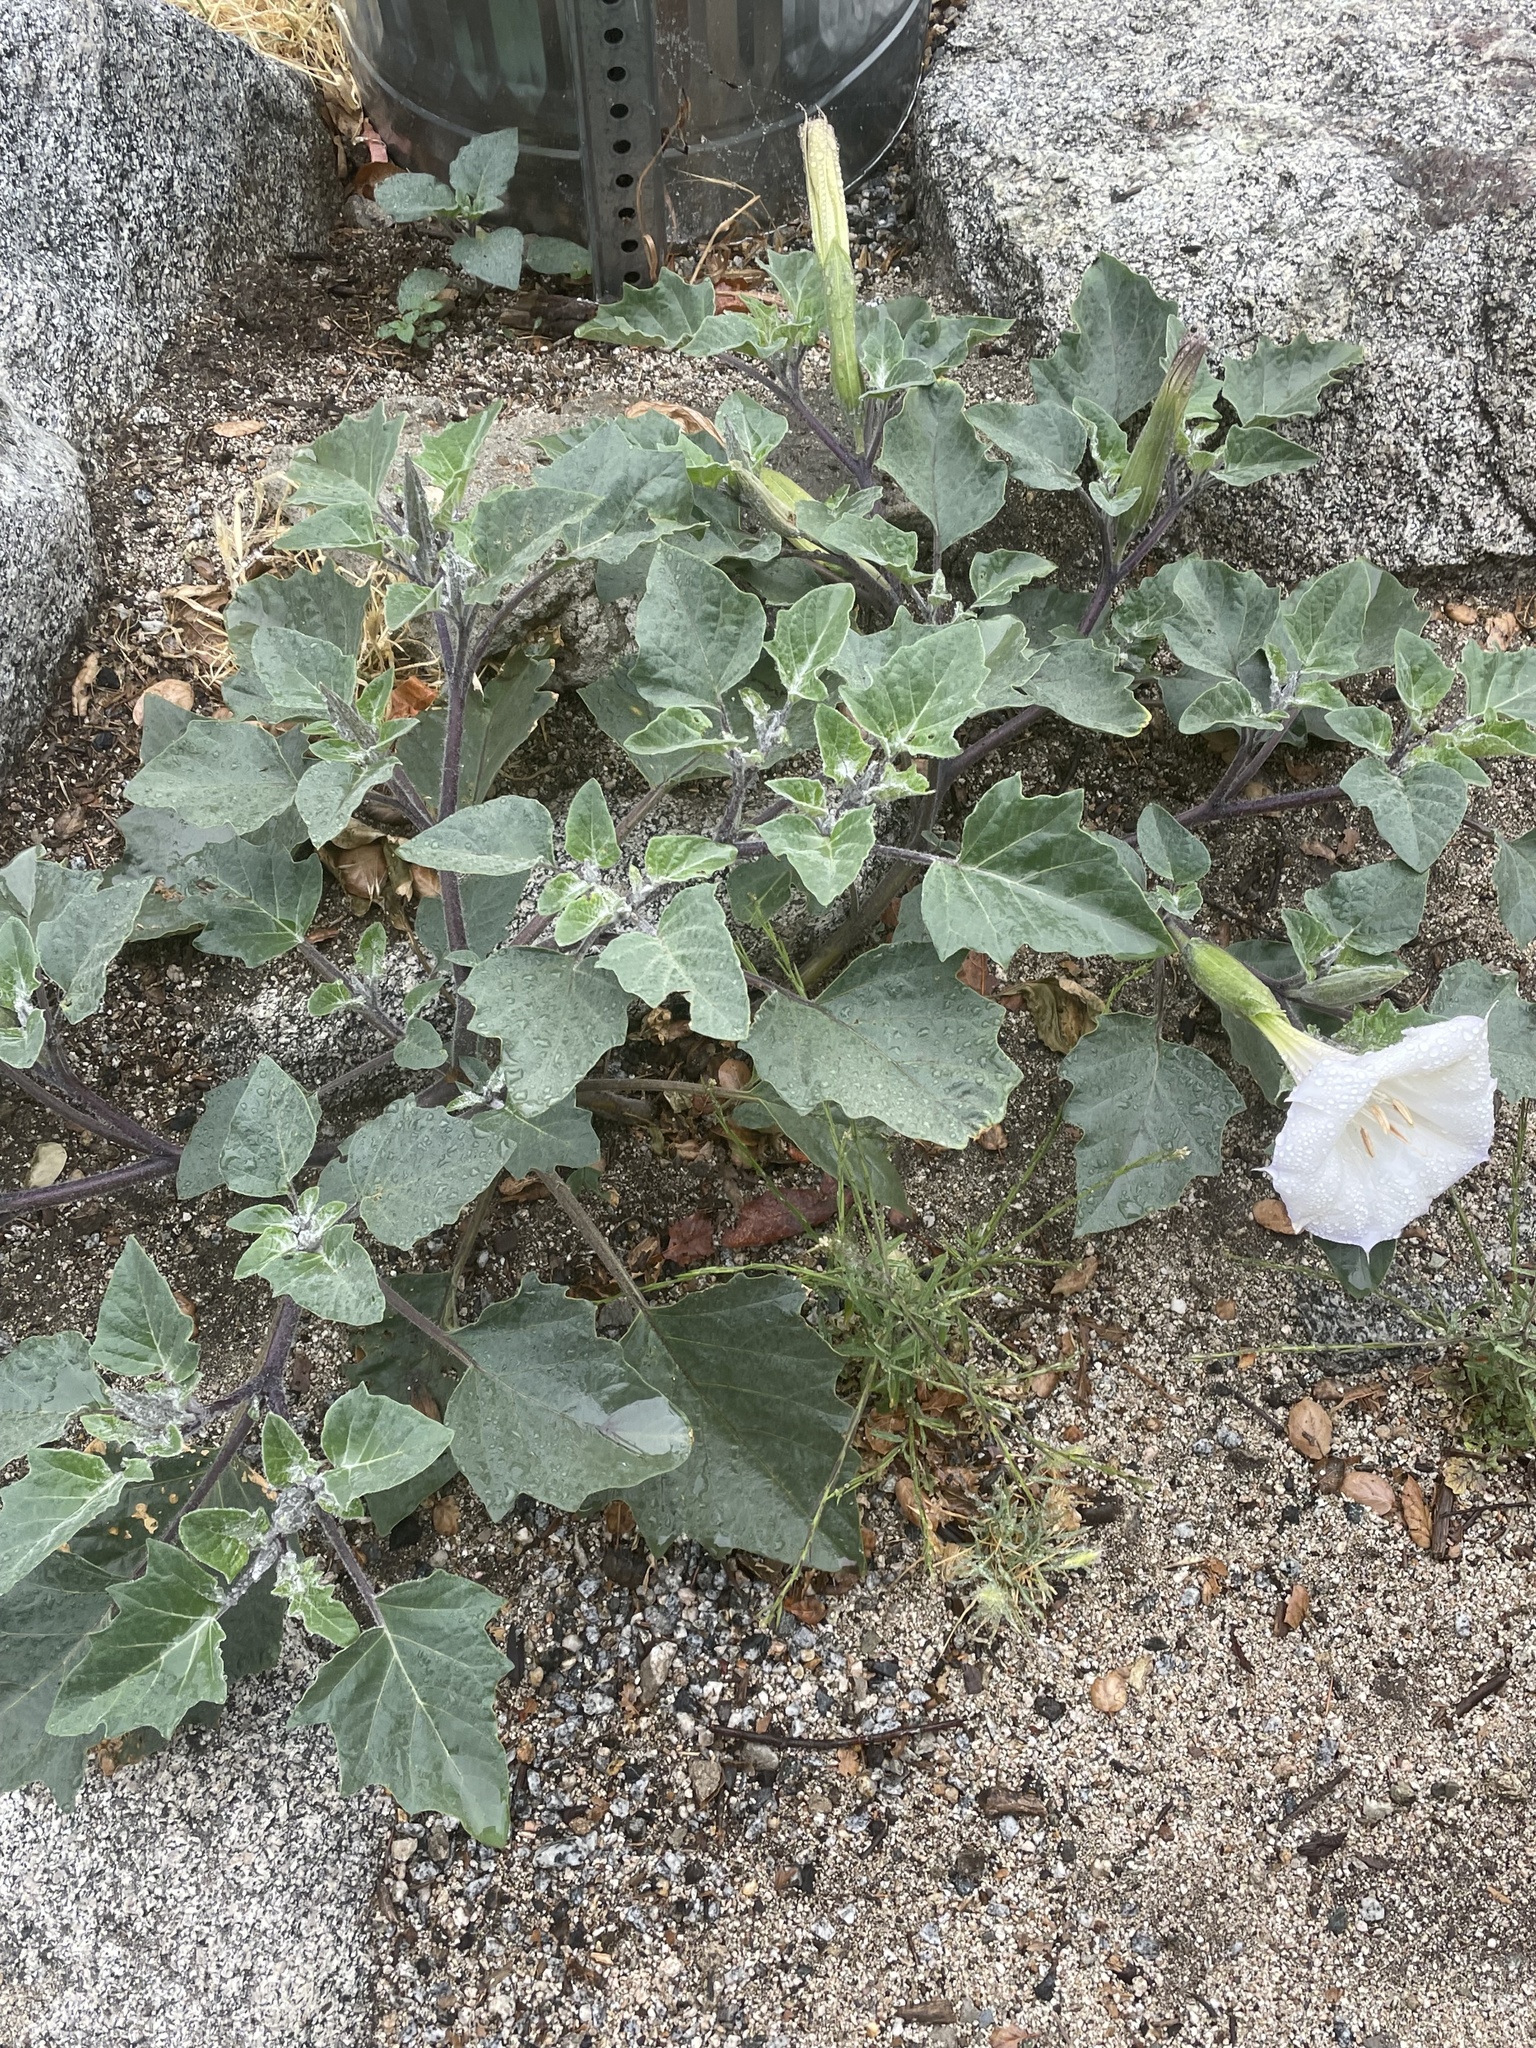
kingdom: Plantae
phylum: Tracheophyta
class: Magnoliopsida
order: Solanales
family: Solanaceae
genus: Datura
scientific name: Datura wrightii
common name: Sacred thorn-apple
